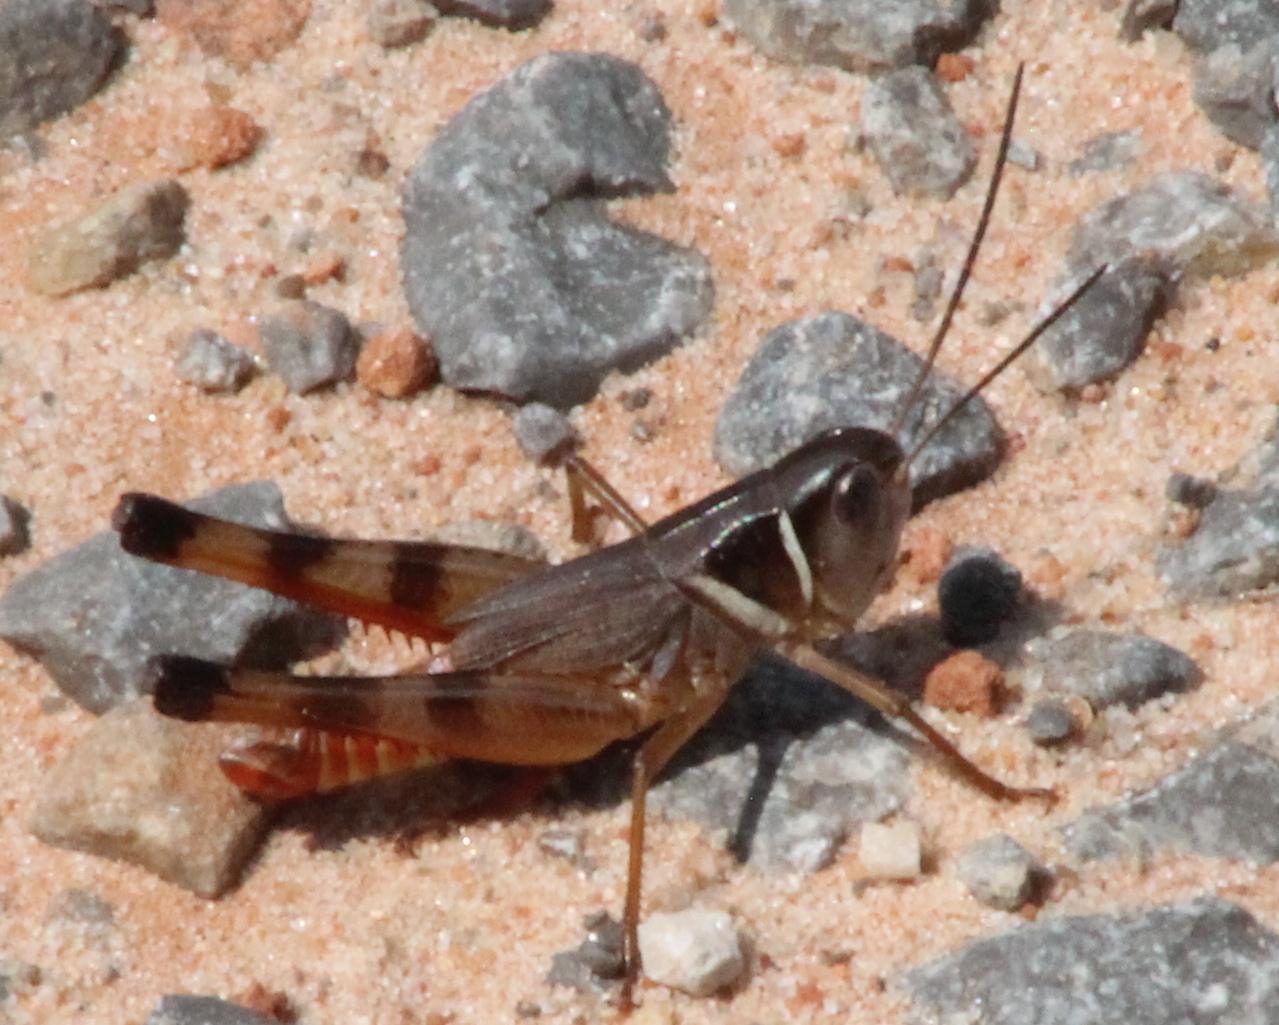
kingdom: Animalia
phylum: Arthropoda
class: Insecta
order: Orthoptera
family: Acrididae
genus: Boopedon
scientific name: Boopedon auriventris
